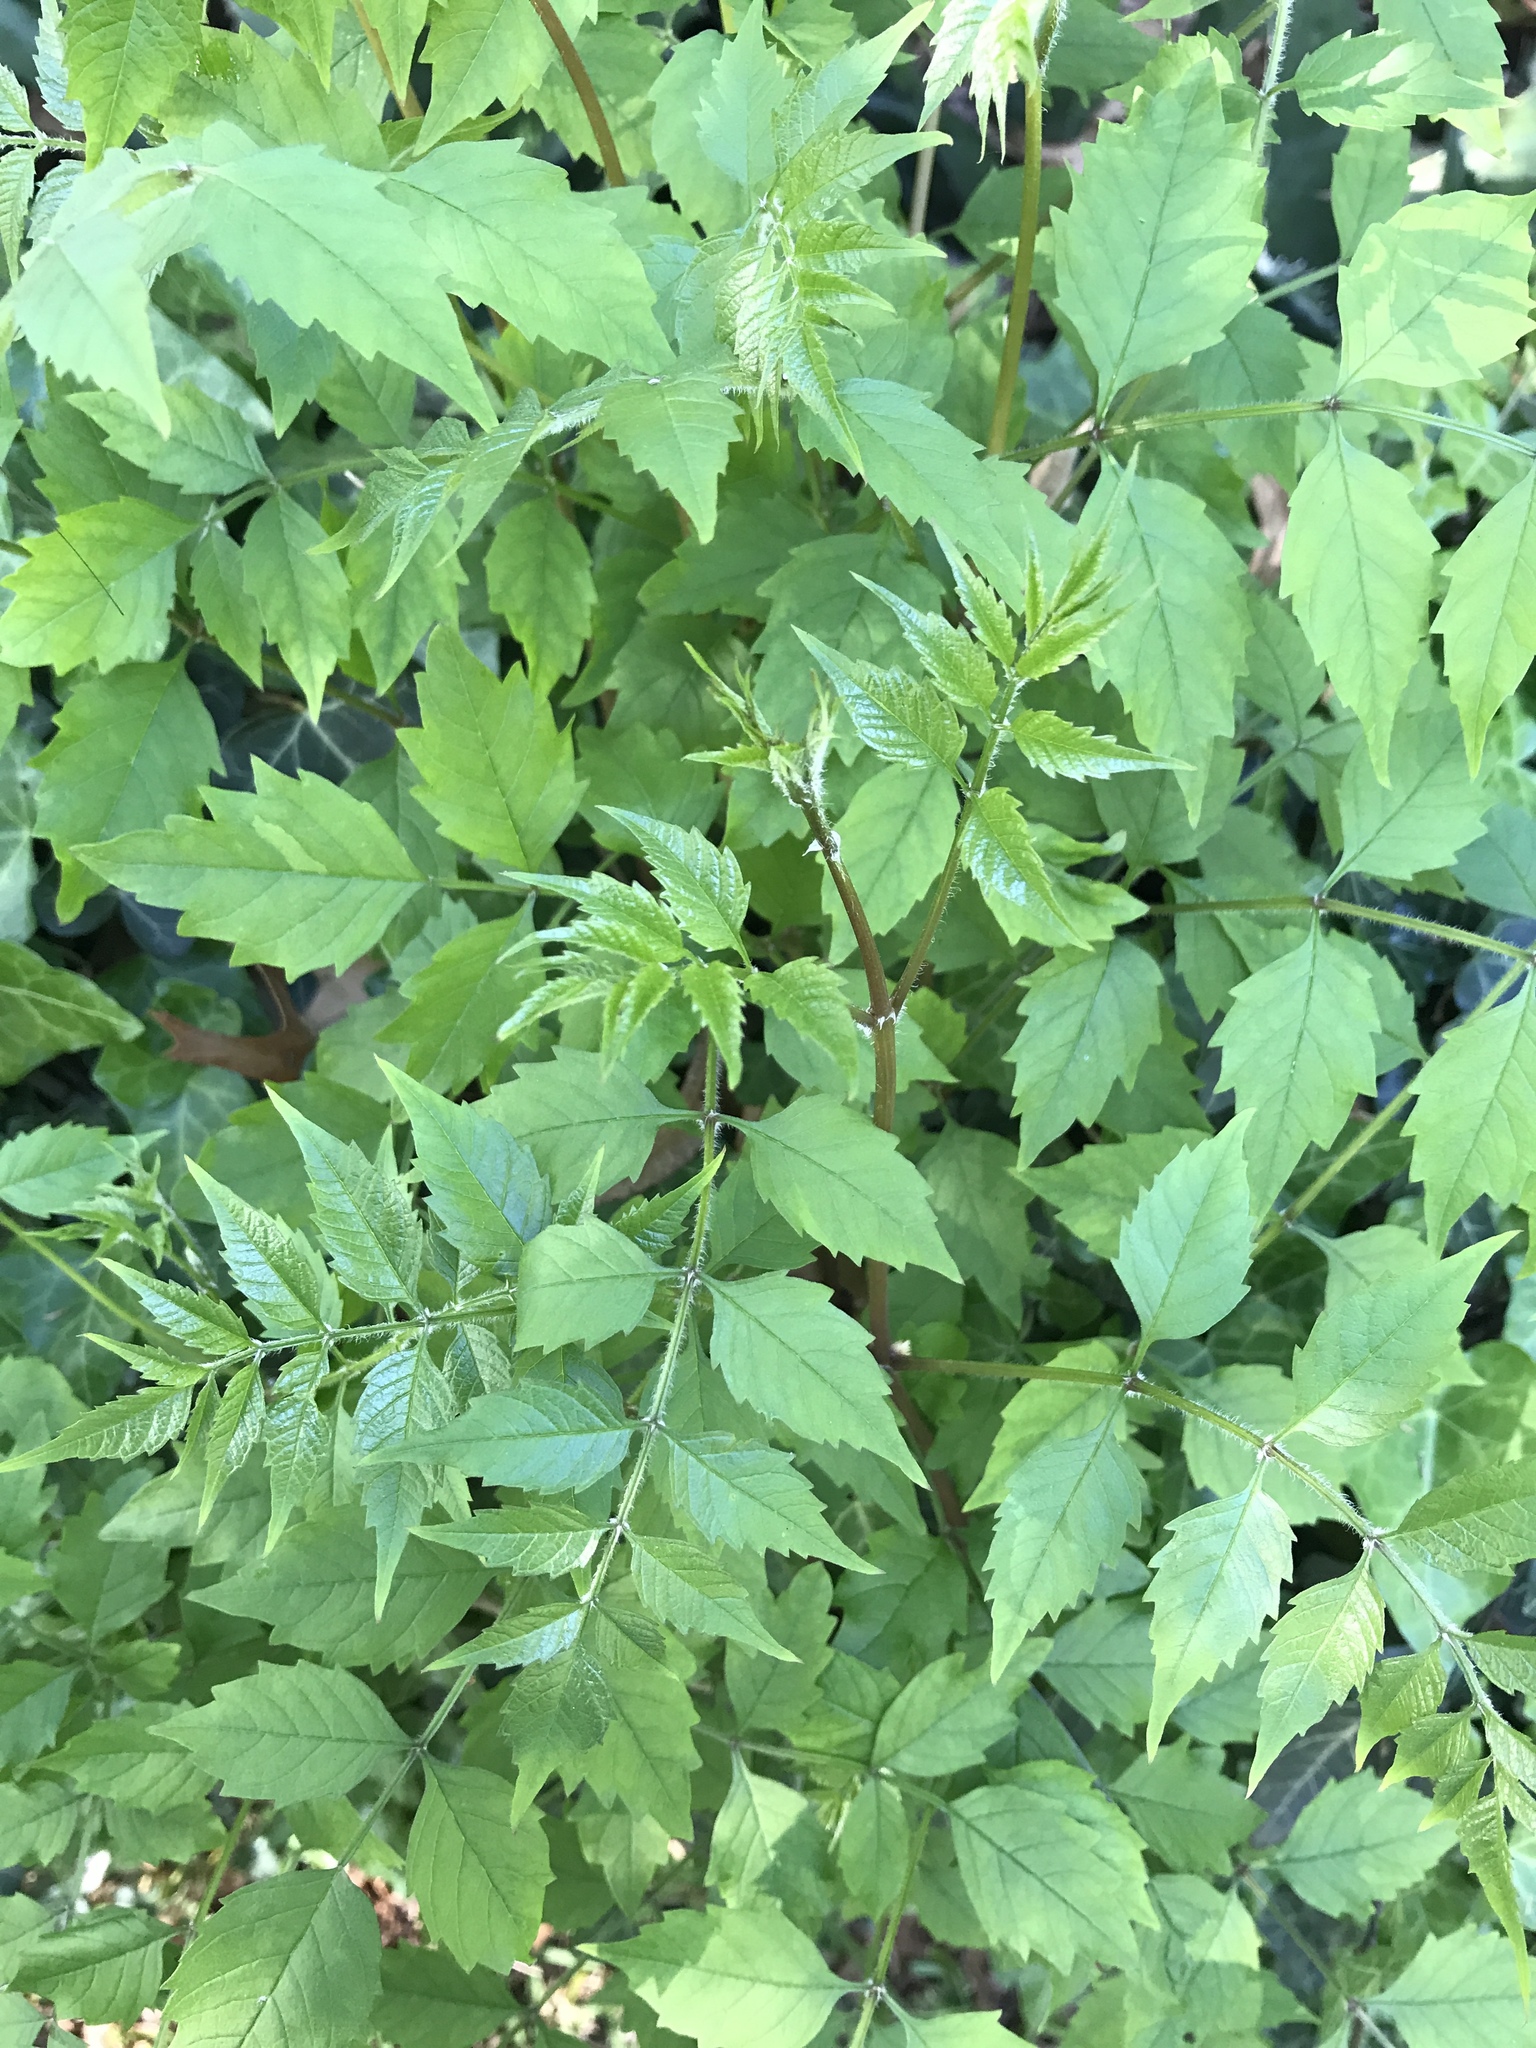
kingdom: Plantae
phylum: Tracheophyta
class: Magnoliopsida
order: Lamiales
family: Bignoniaceae
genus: Campsis
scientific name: Campsis radicans
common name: Trumpet-creeper
